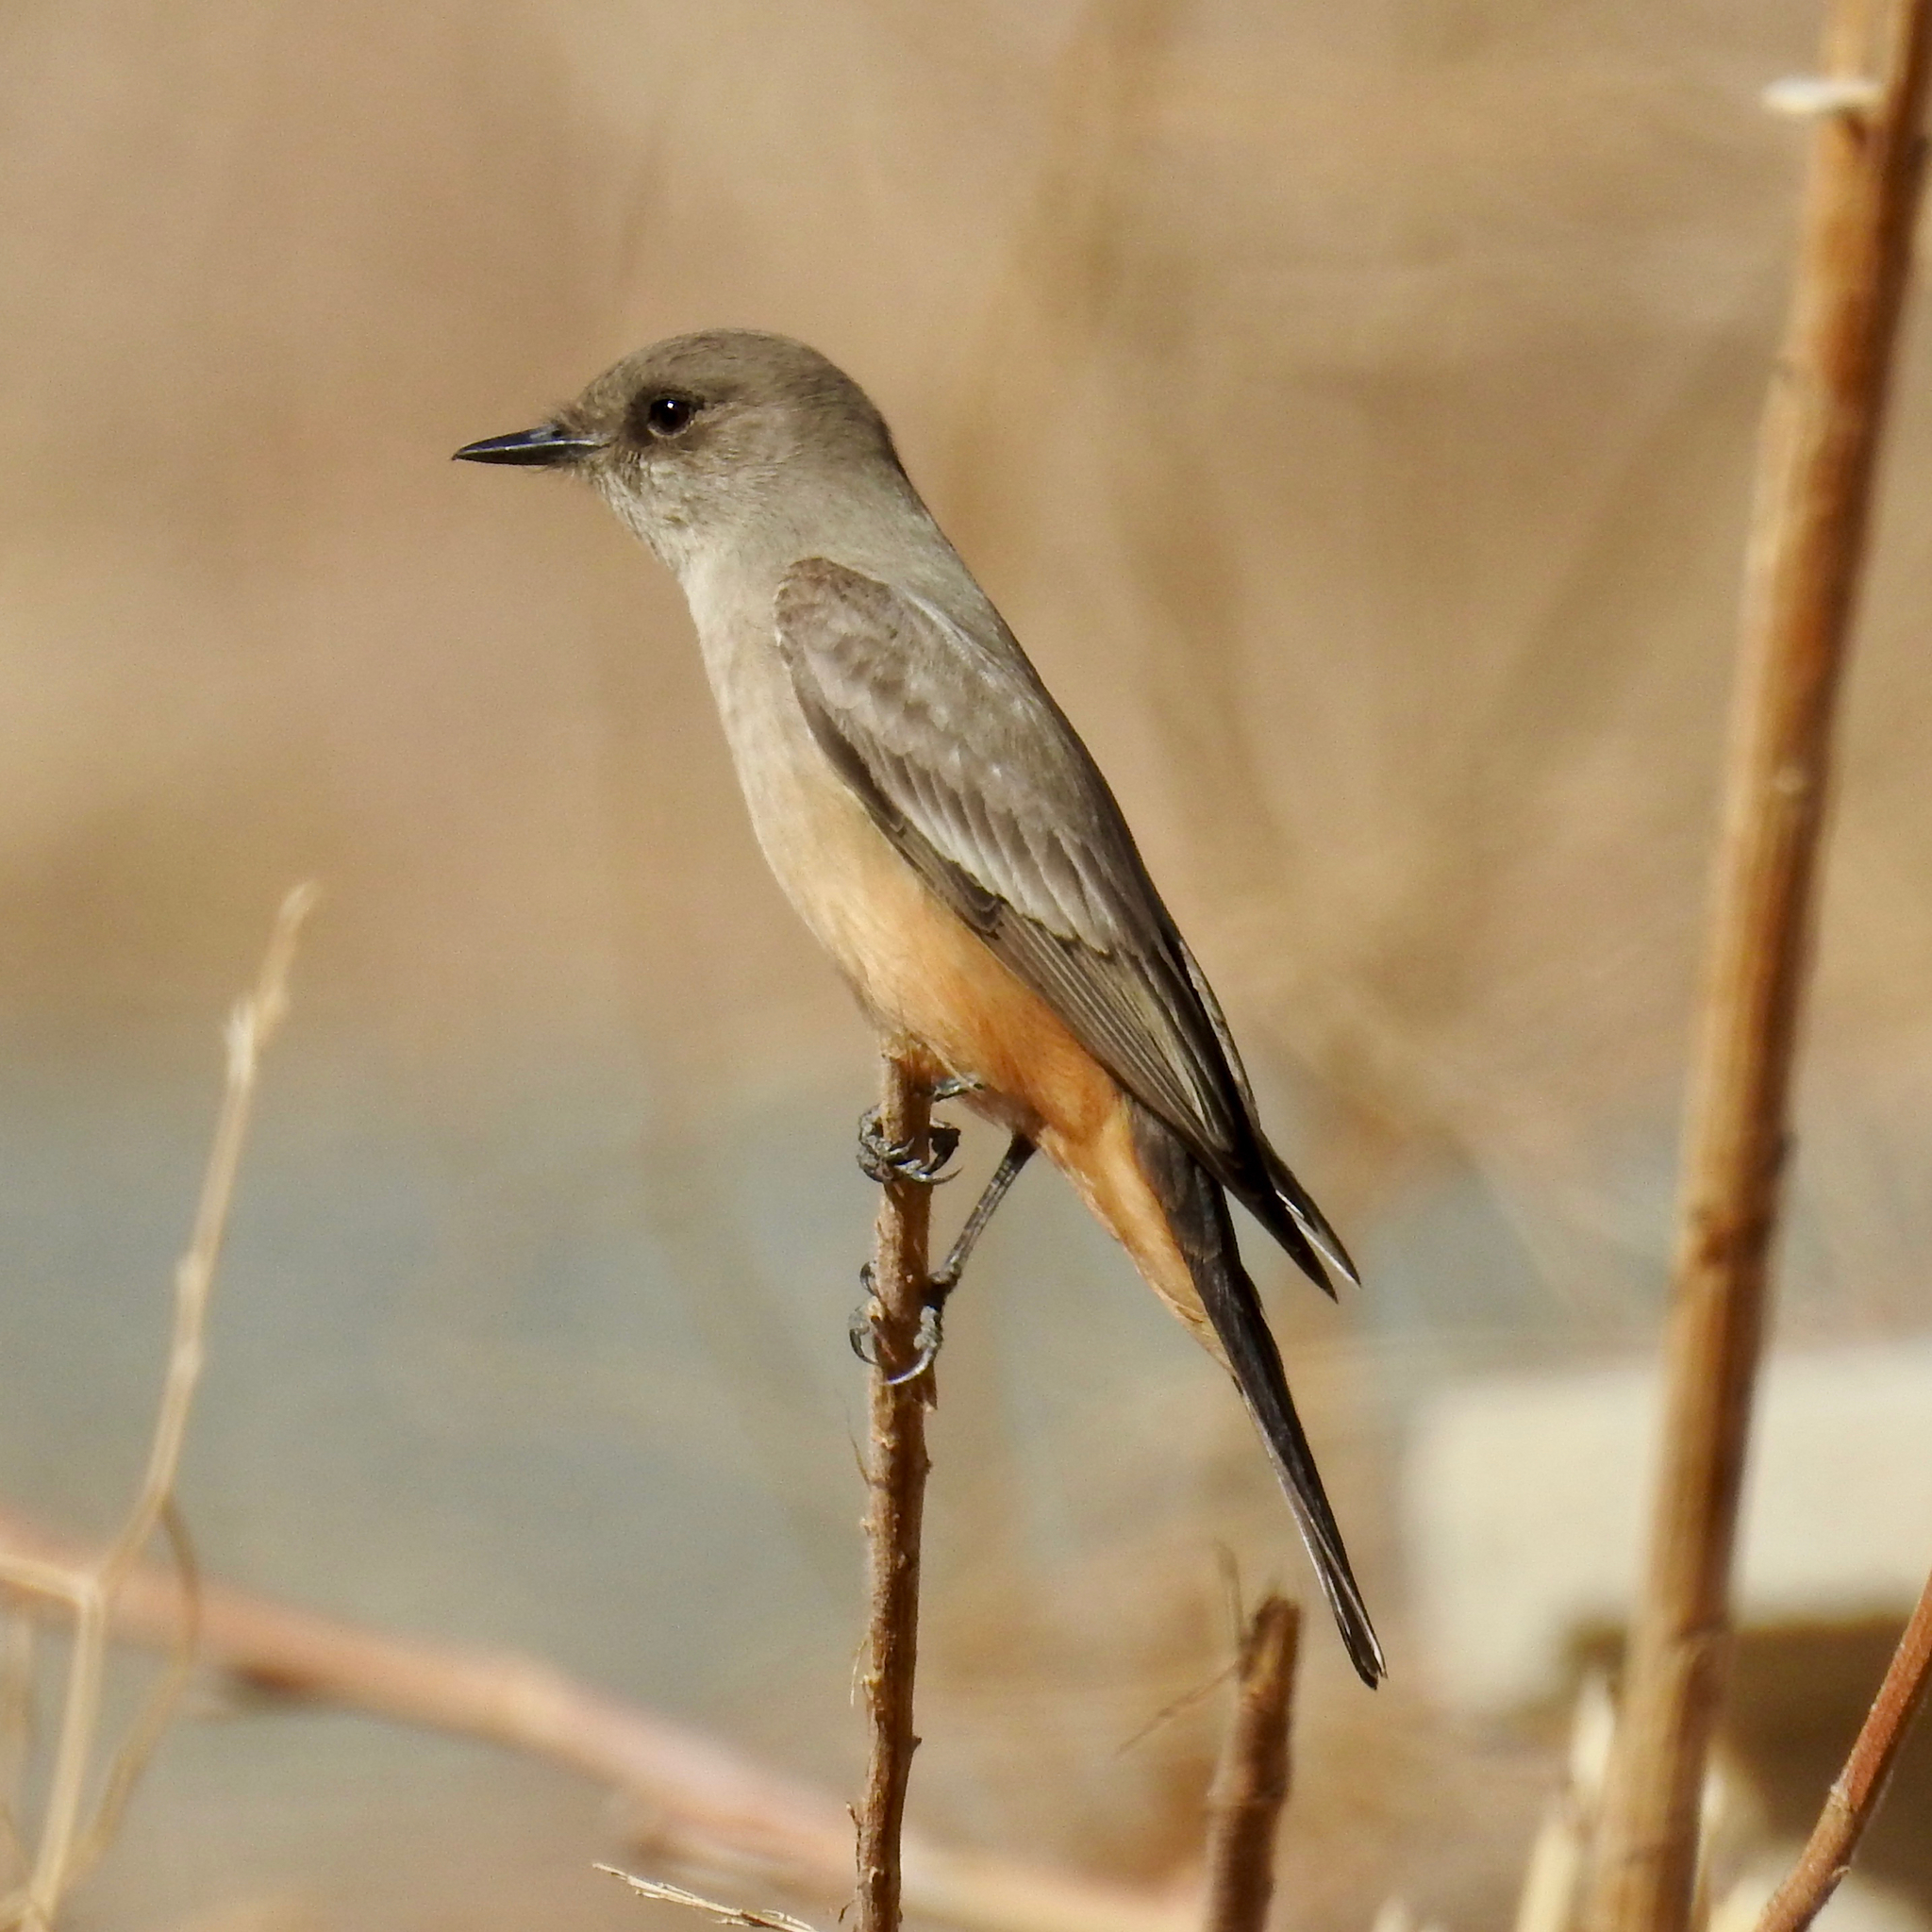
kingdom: Animalia
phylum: Chordata
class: Aves
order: Passeriformes
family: Tyrannidae
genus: Sayornis
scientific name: Sayornis saya
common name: Say's phoebe
